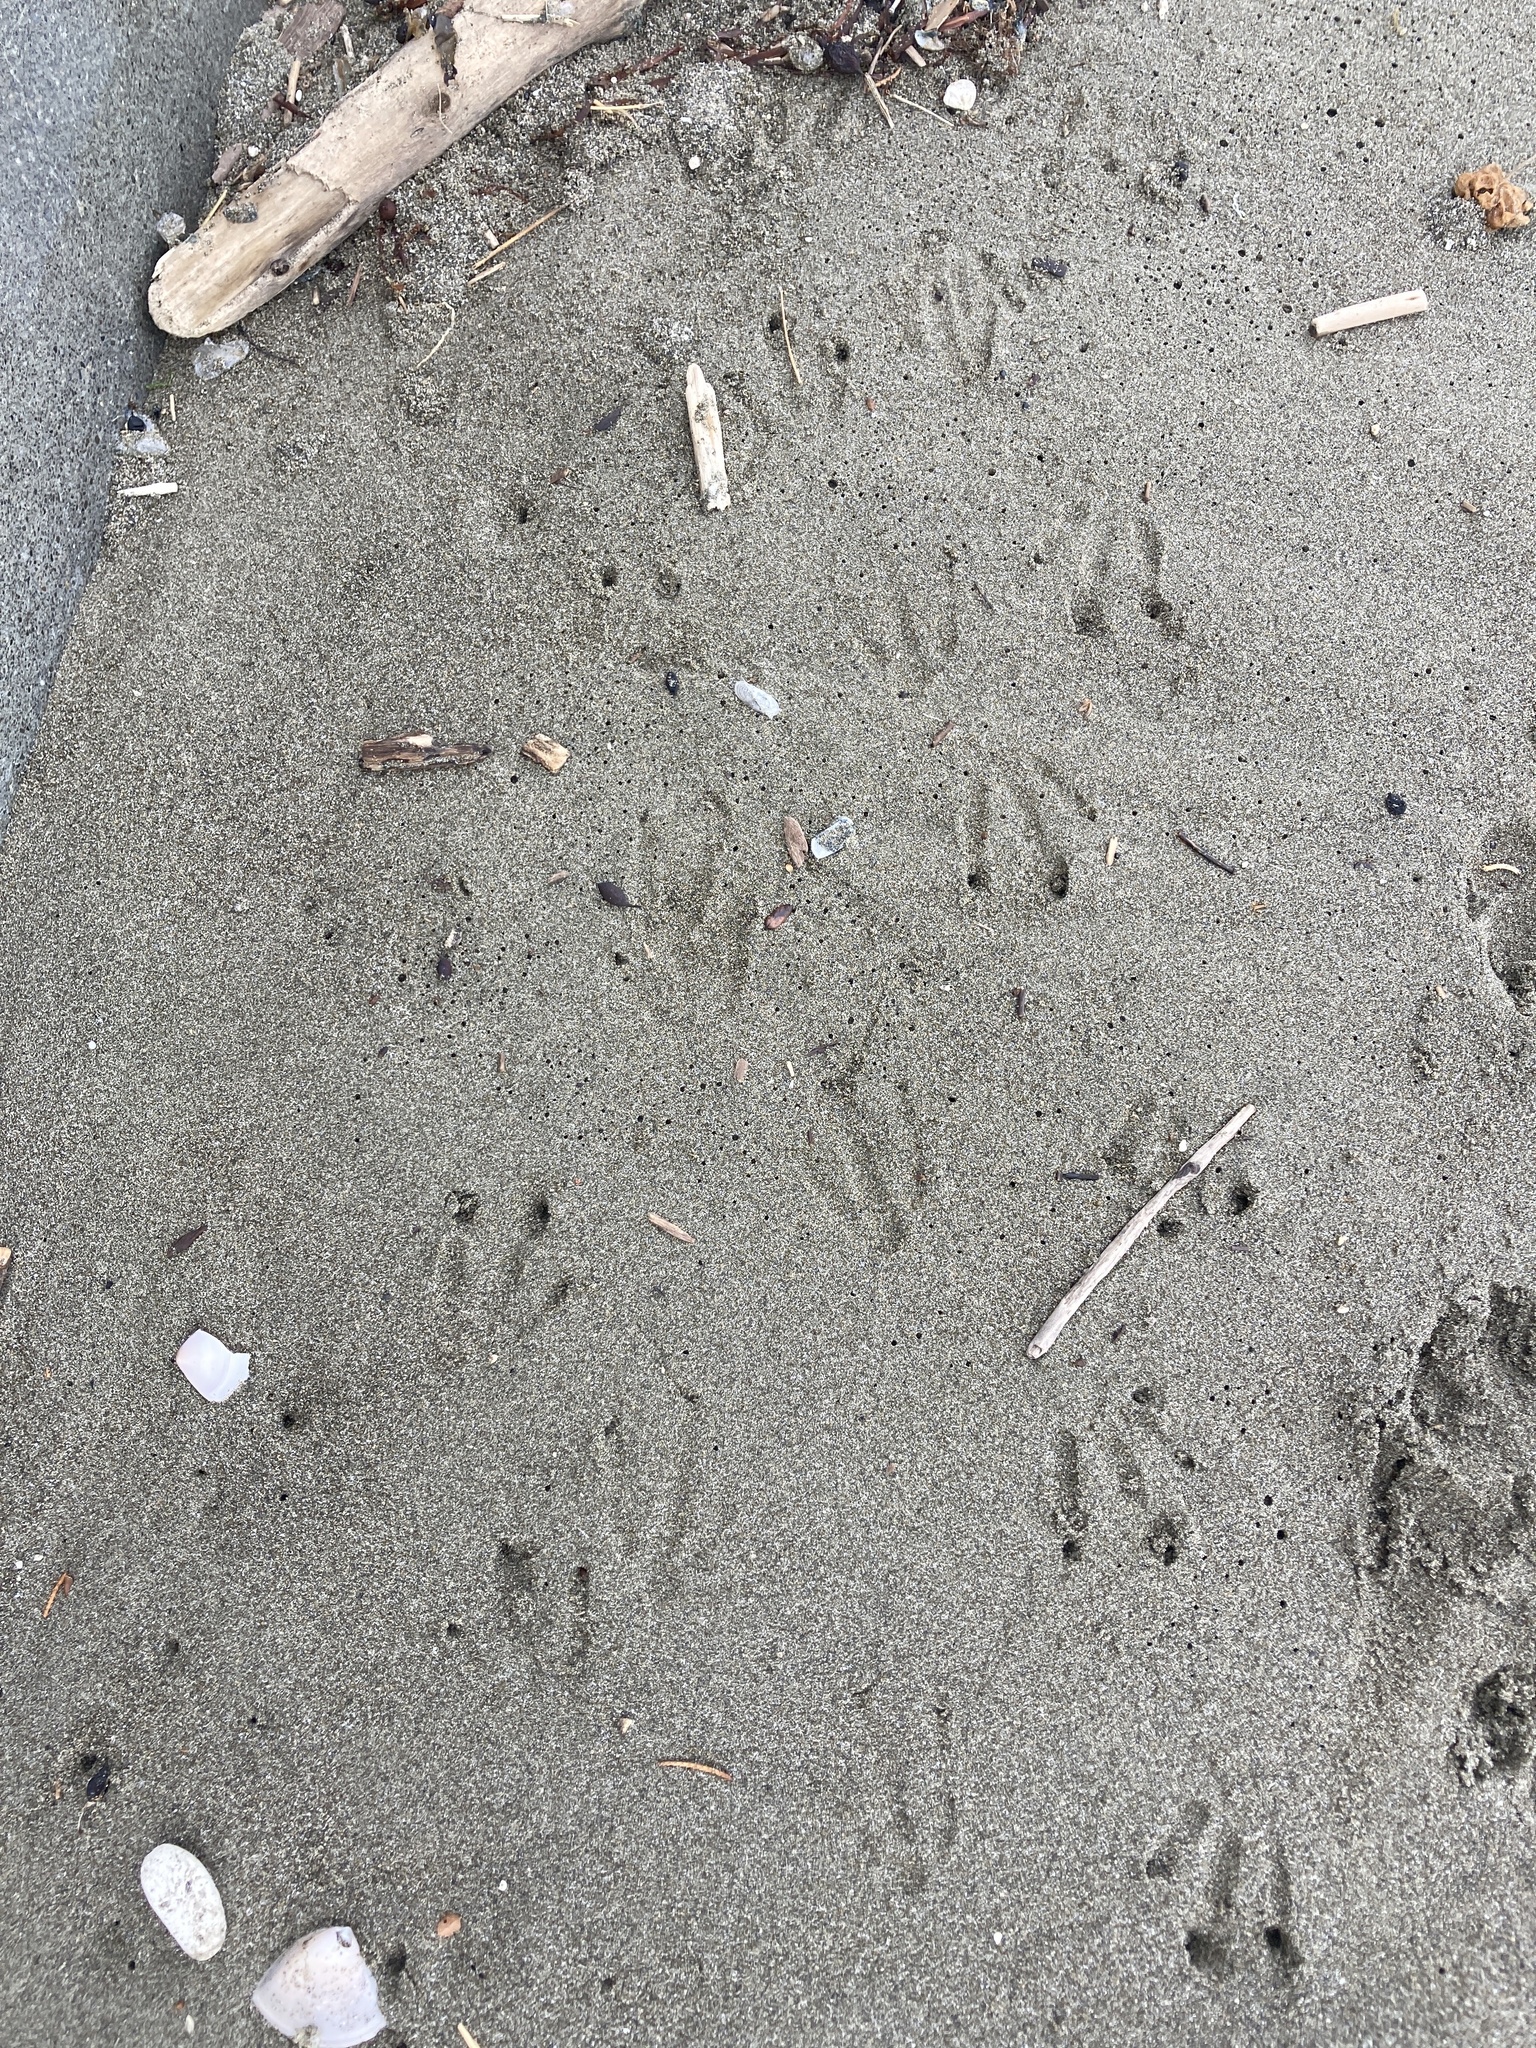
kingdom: Animalia
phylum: Chordata
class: Aves
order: Sphenisciformes
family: Spheniscidae
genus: Eudyptula
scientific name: Eudyptula minor
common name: Little penguin
